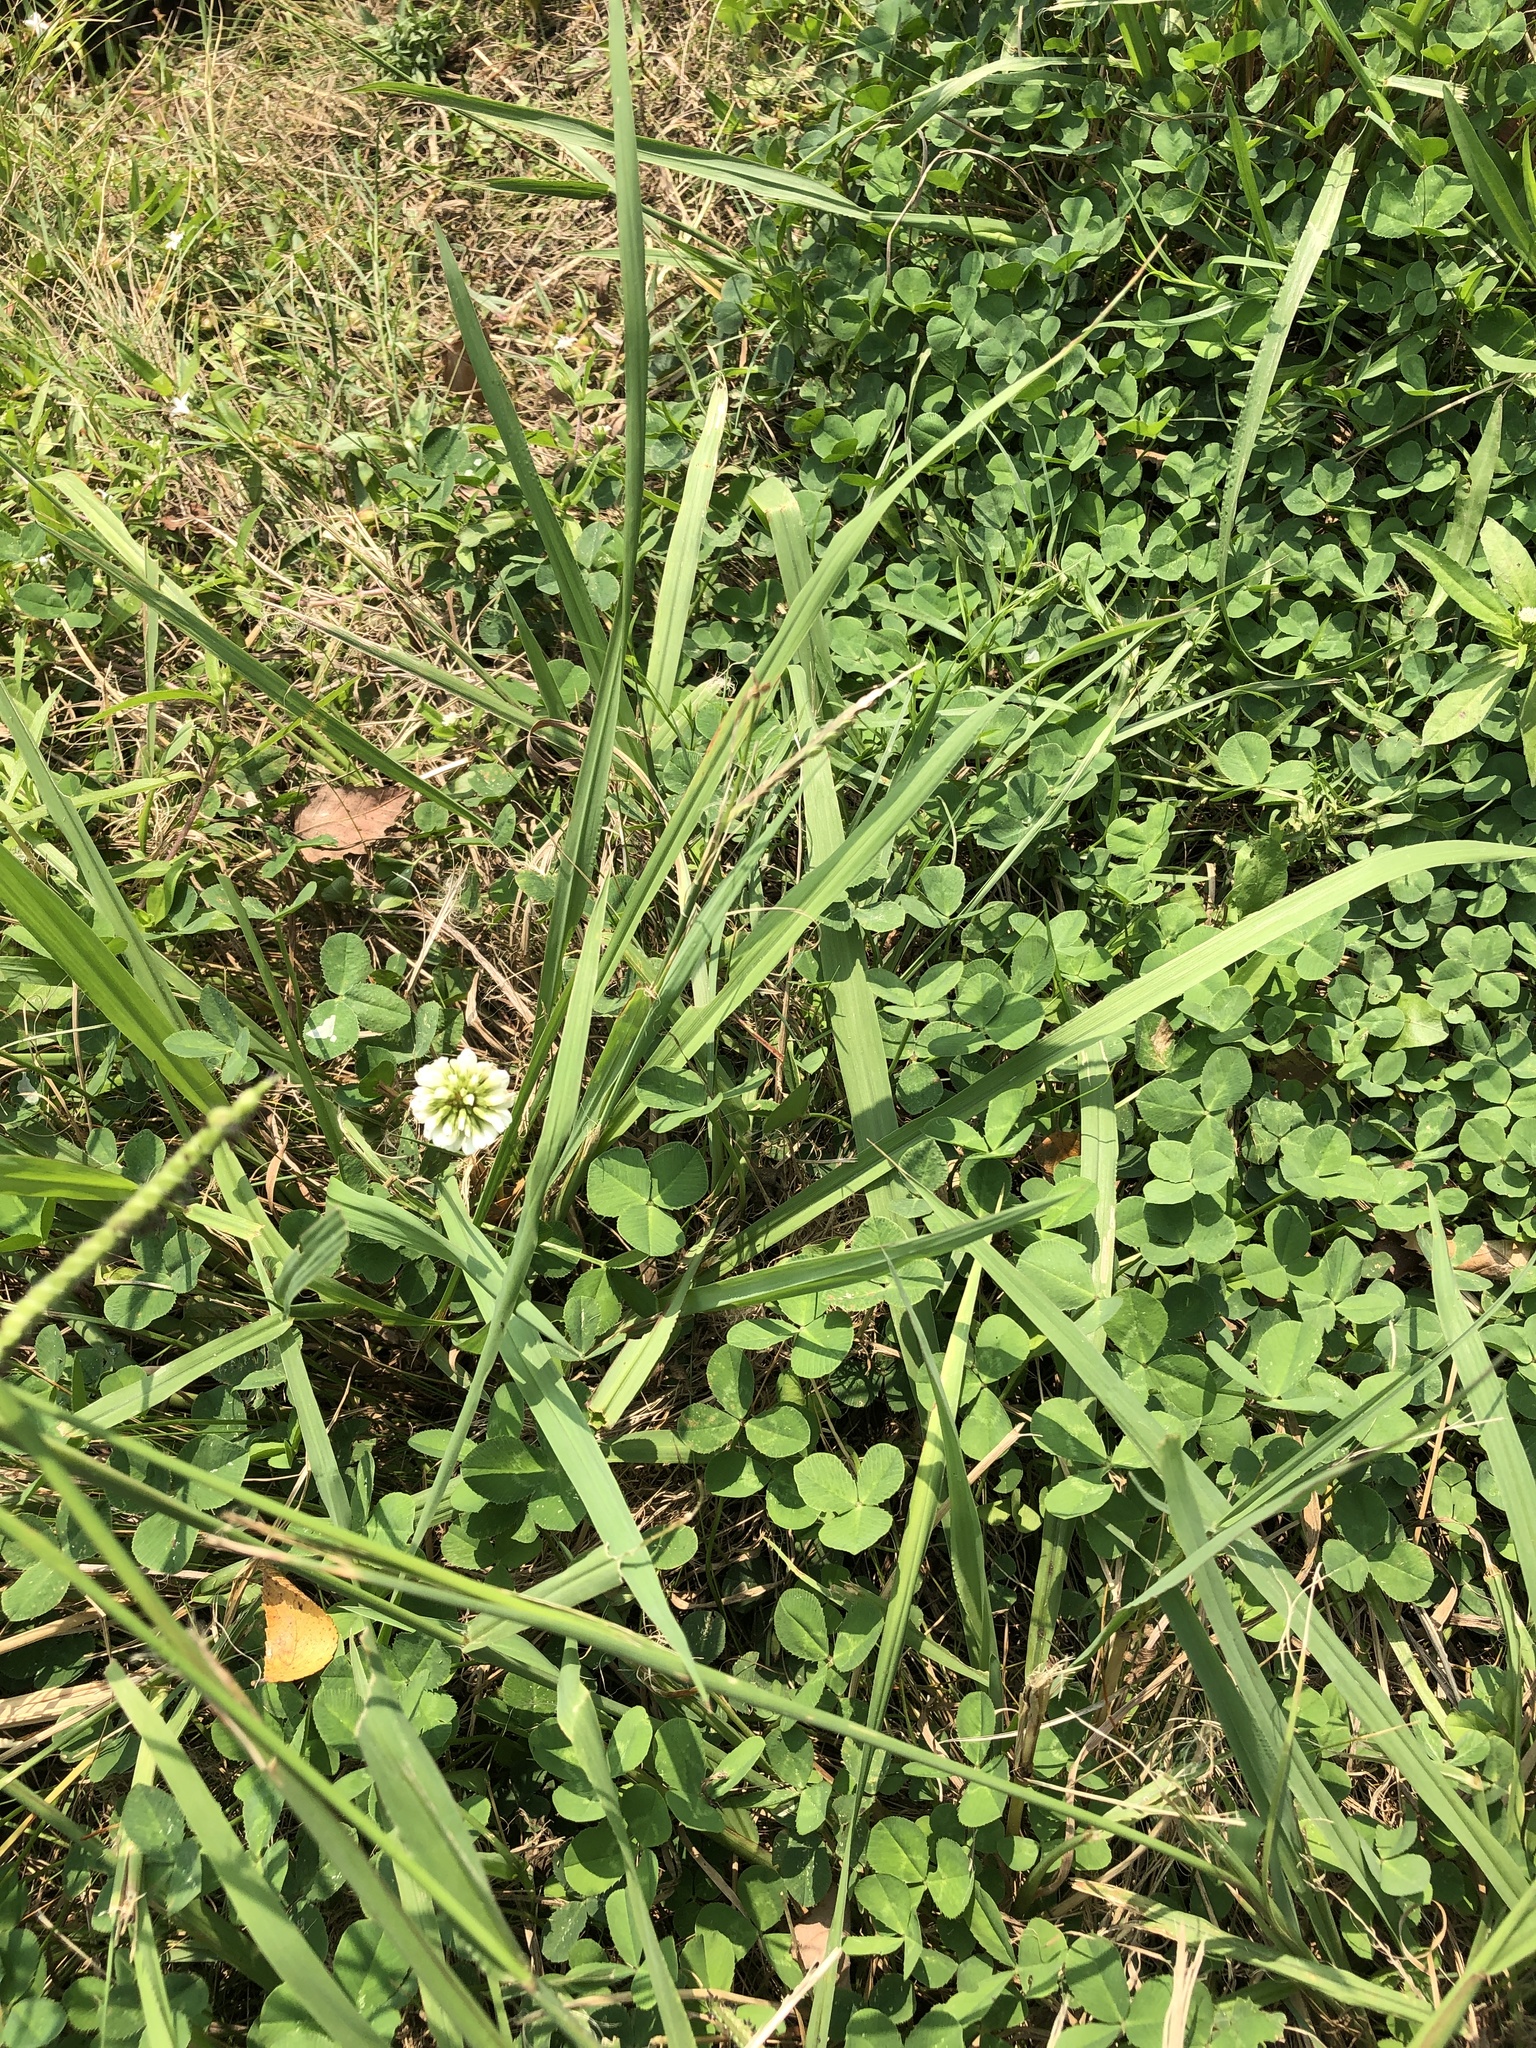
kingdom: Plantae
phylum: Tracheophyta
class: Magnoliopsida
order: Fabales
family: Fabaceae
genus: Trifolium
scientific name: Trifolium repens
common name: White clover
